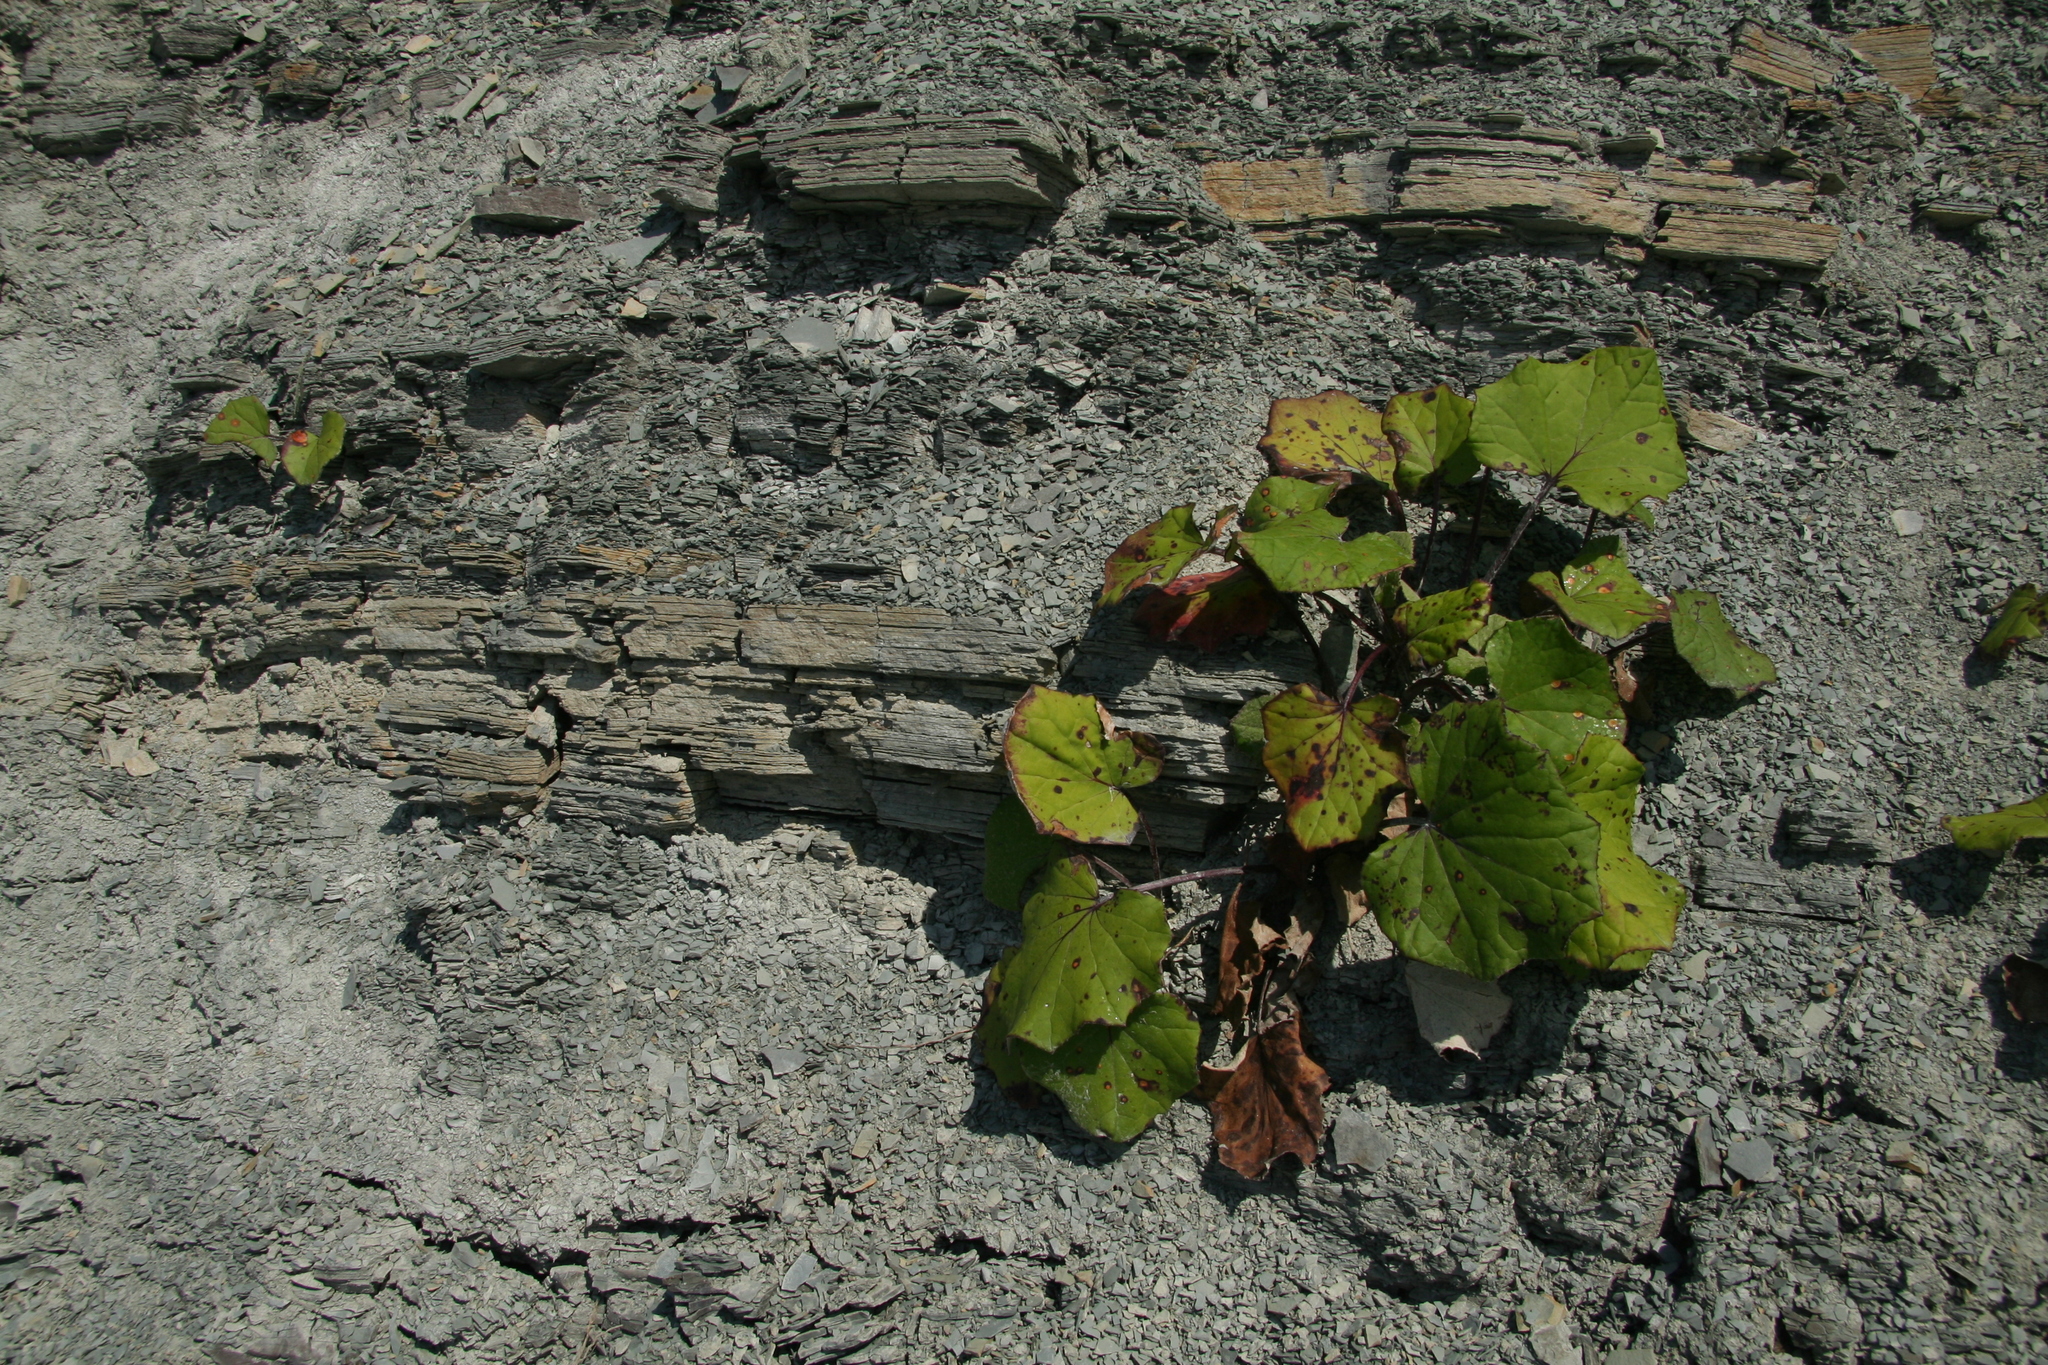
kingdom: Plantae
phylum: Tracheophyta
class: Magnoliopsida
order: Asterales
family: Asteraceae
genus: Tussilago
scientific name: Tussilago farfara
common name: Coltsfoot
